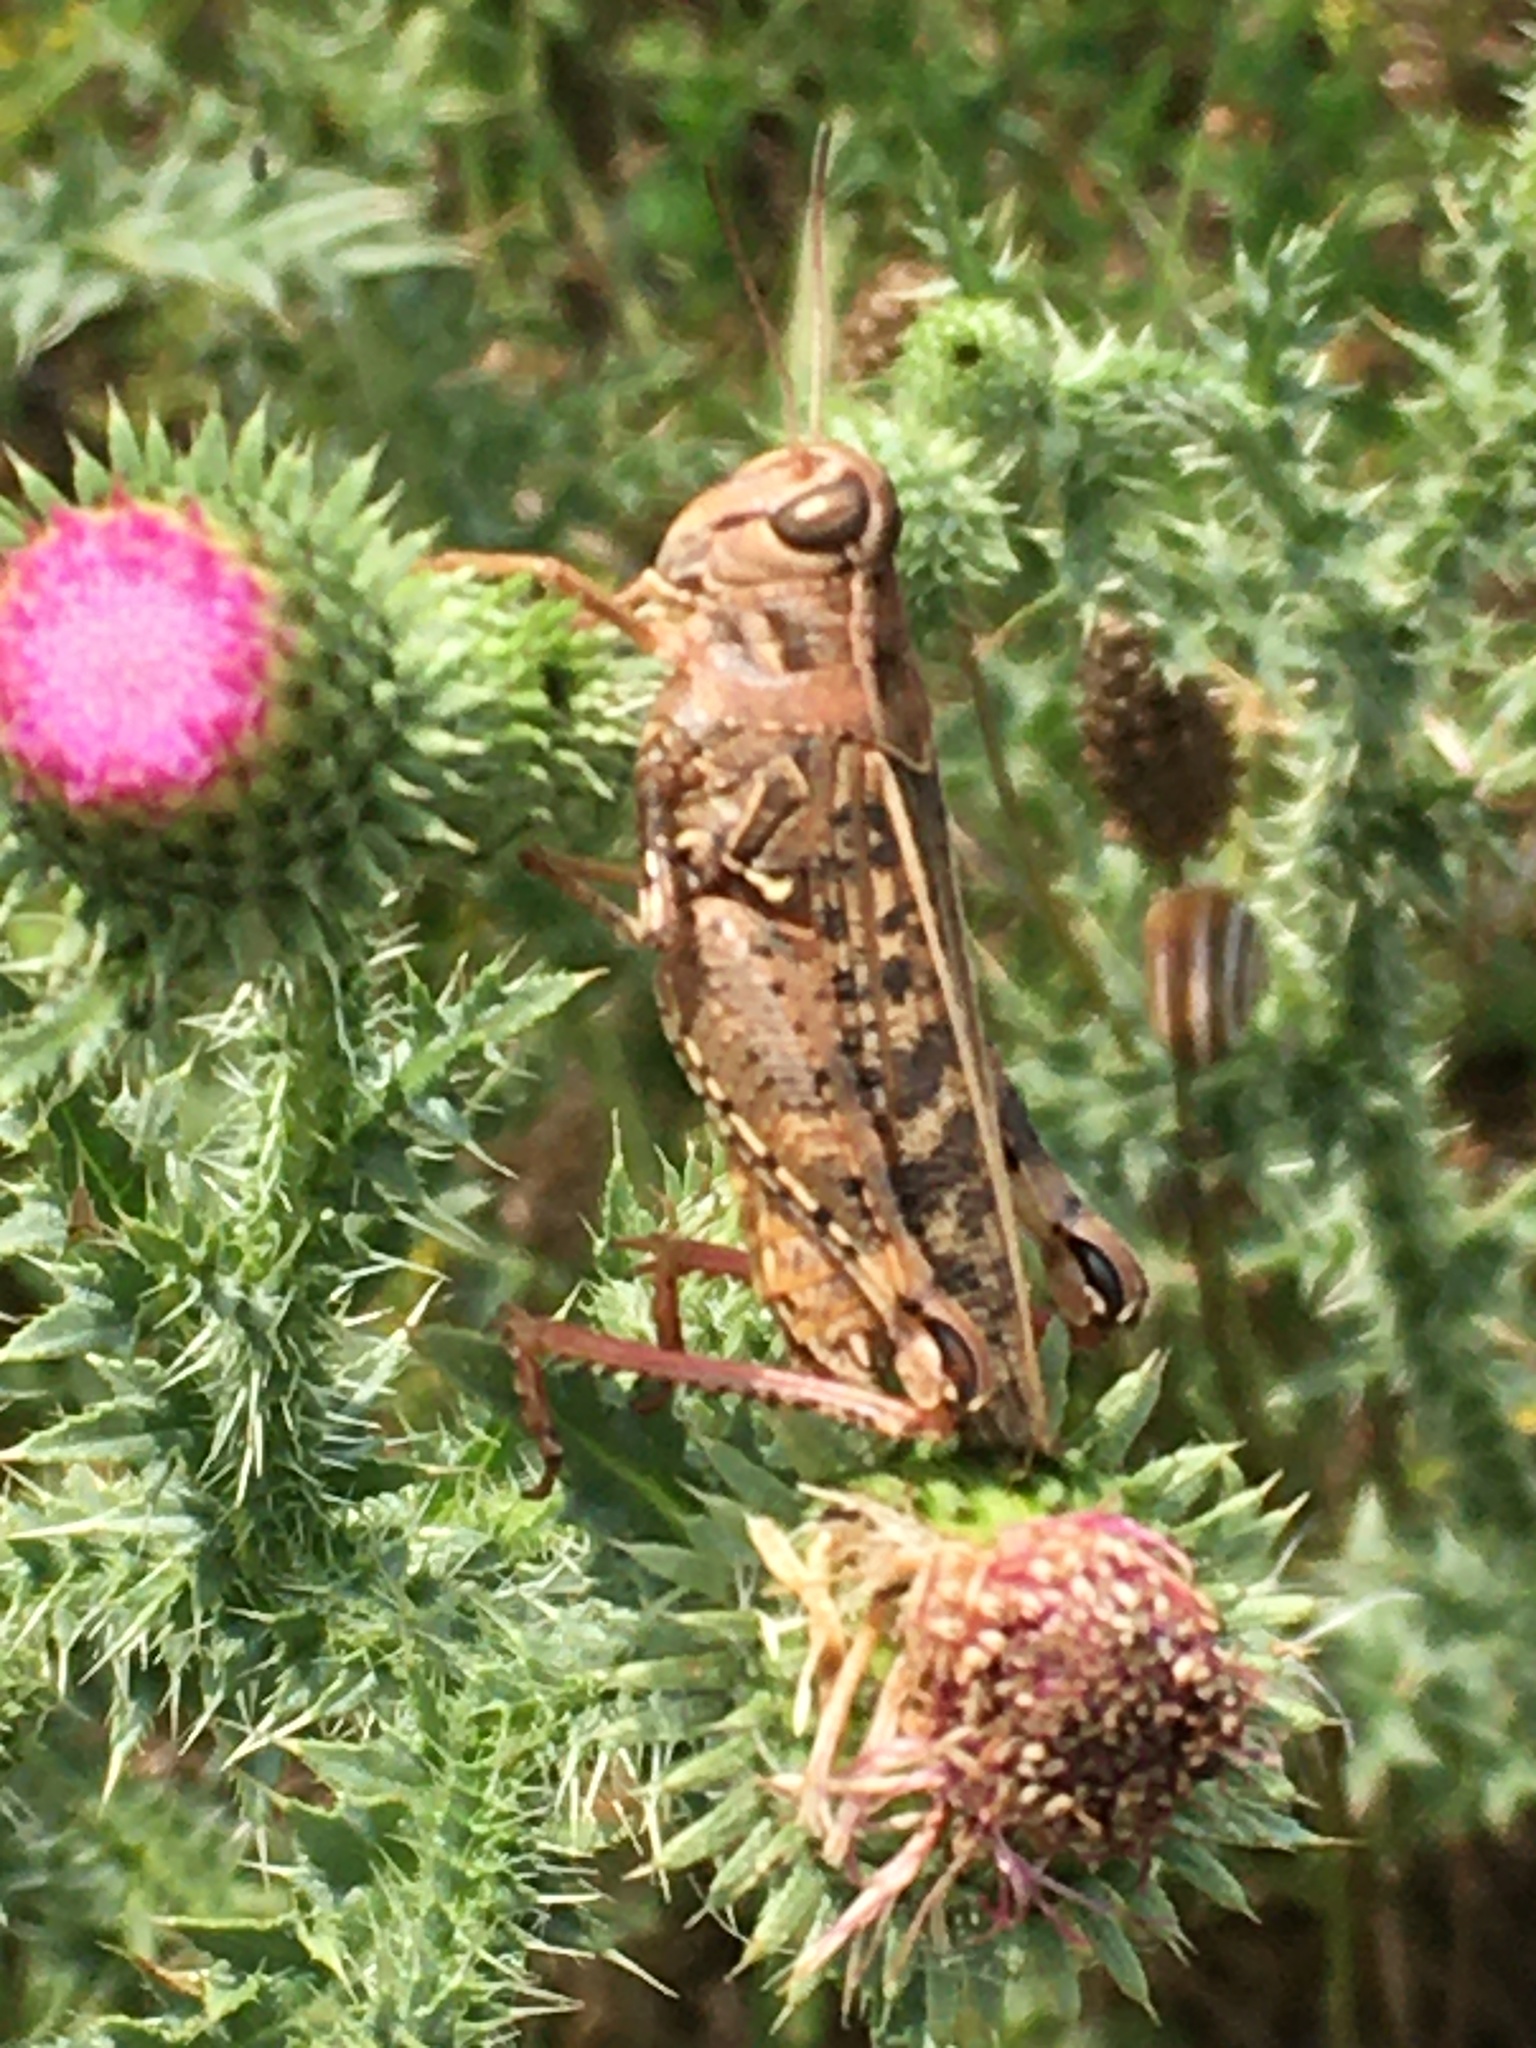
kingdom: Animalia
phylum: Arthropoda
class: Insecta
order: Orthoptera
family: Acrididae
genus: Calliptamus
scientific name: Calliptamus italicus
